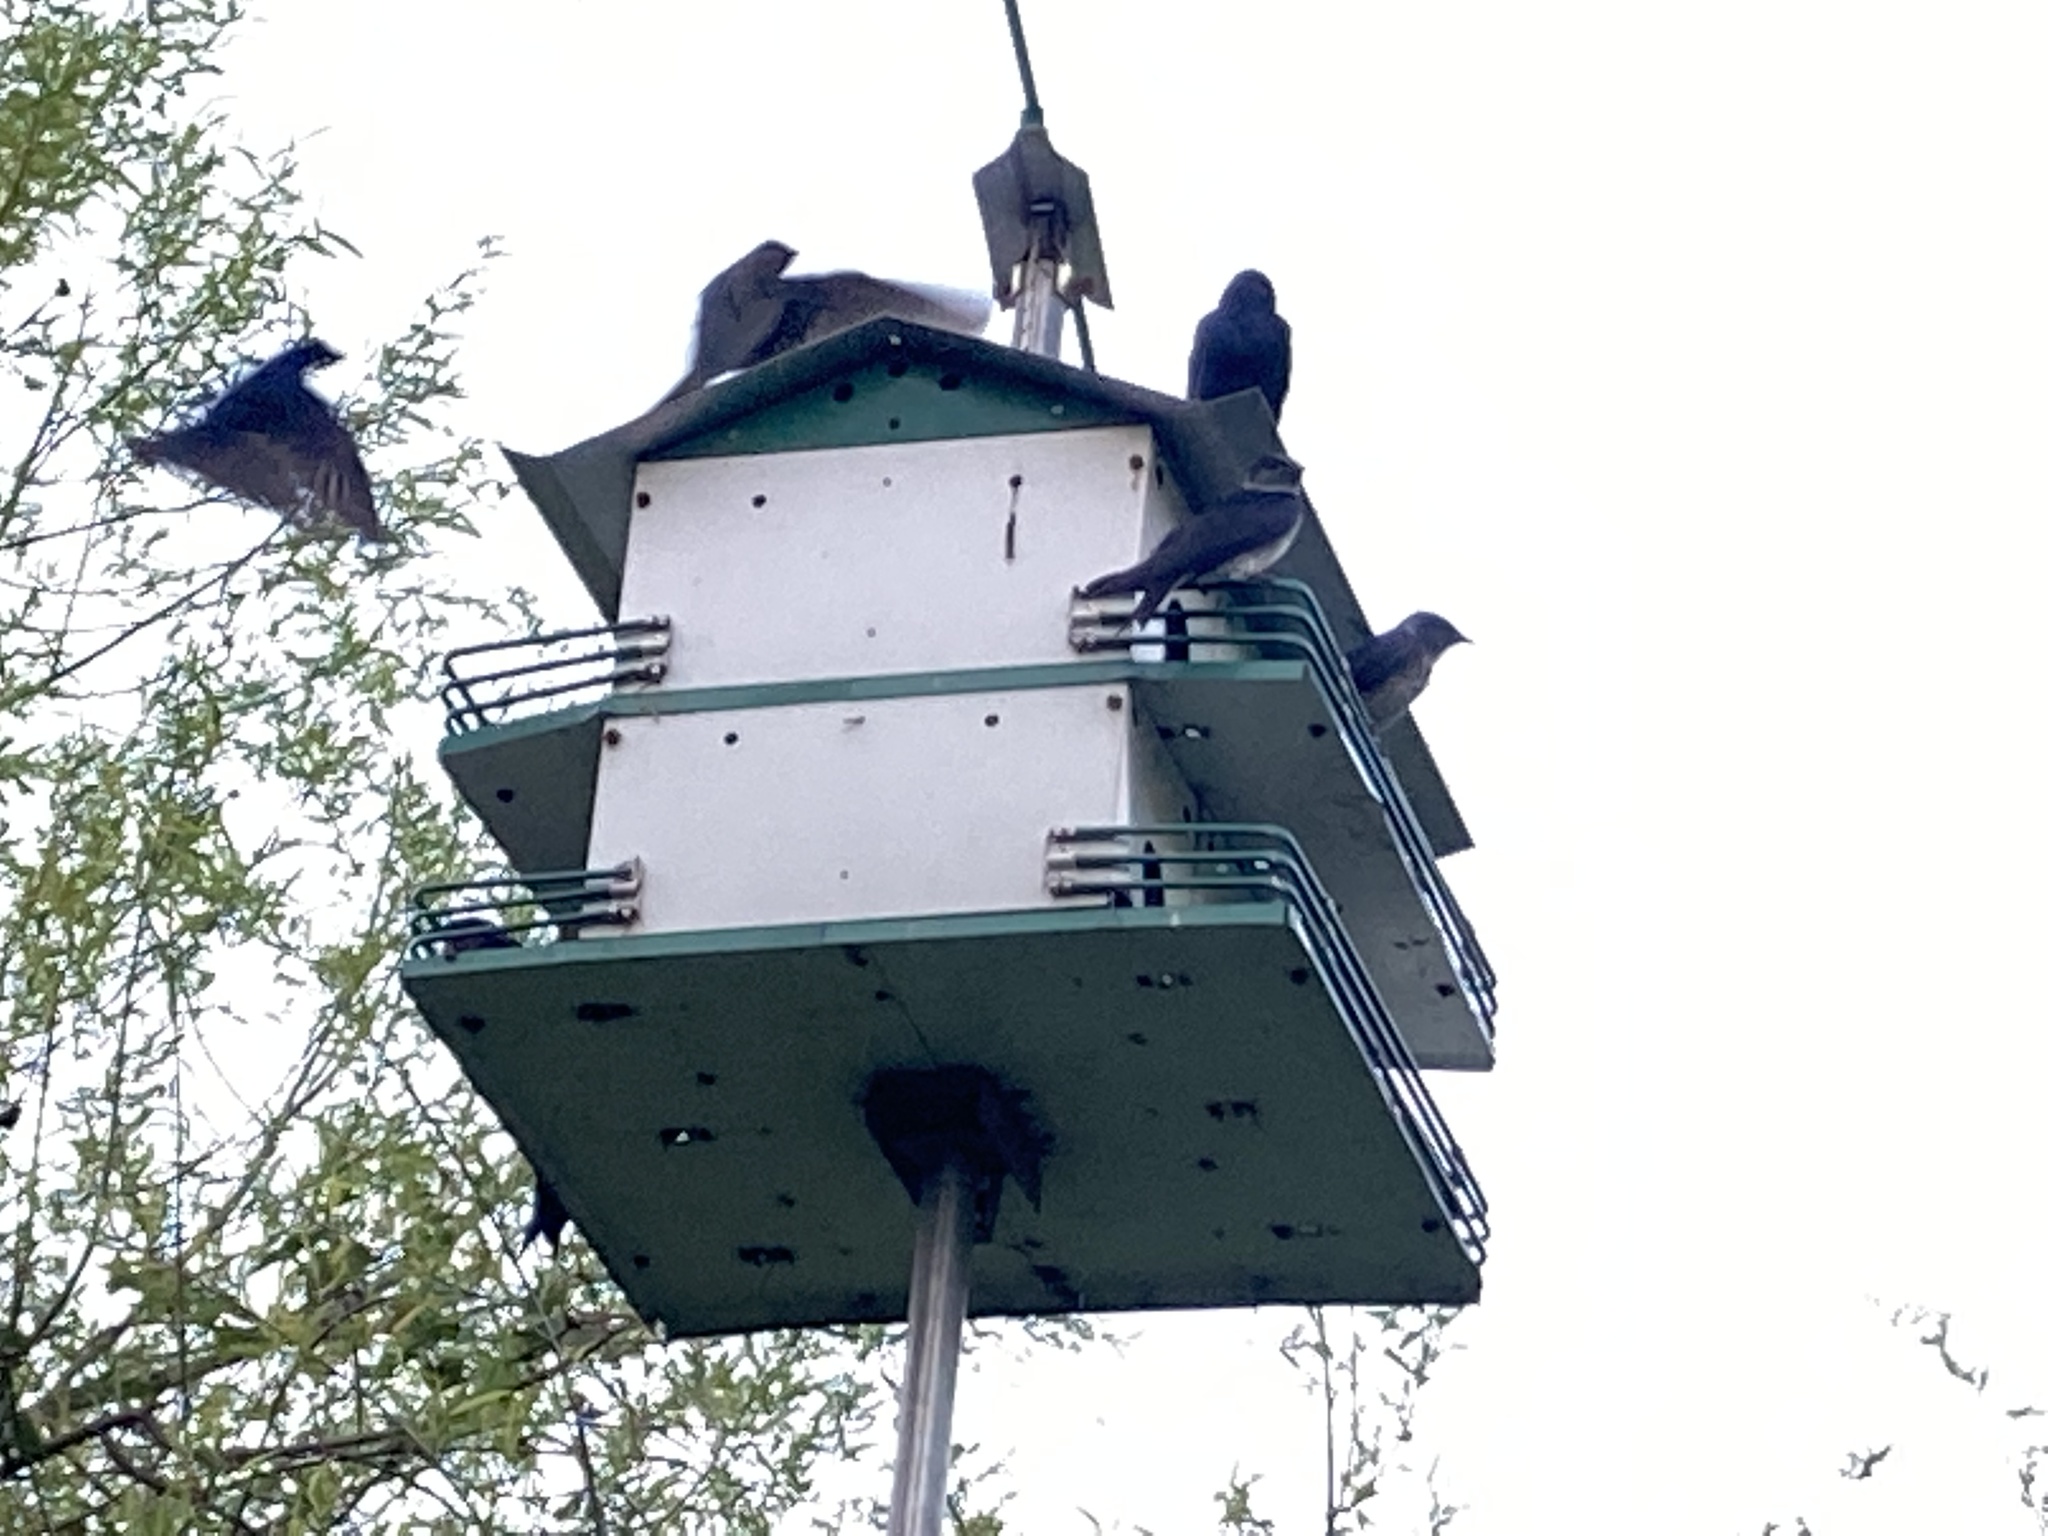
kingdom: Animalia
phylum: Chordata
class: Aves
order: Passeriformes
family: Hirundinidae
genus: Progne
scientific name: Progne subis
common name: Purple martin
